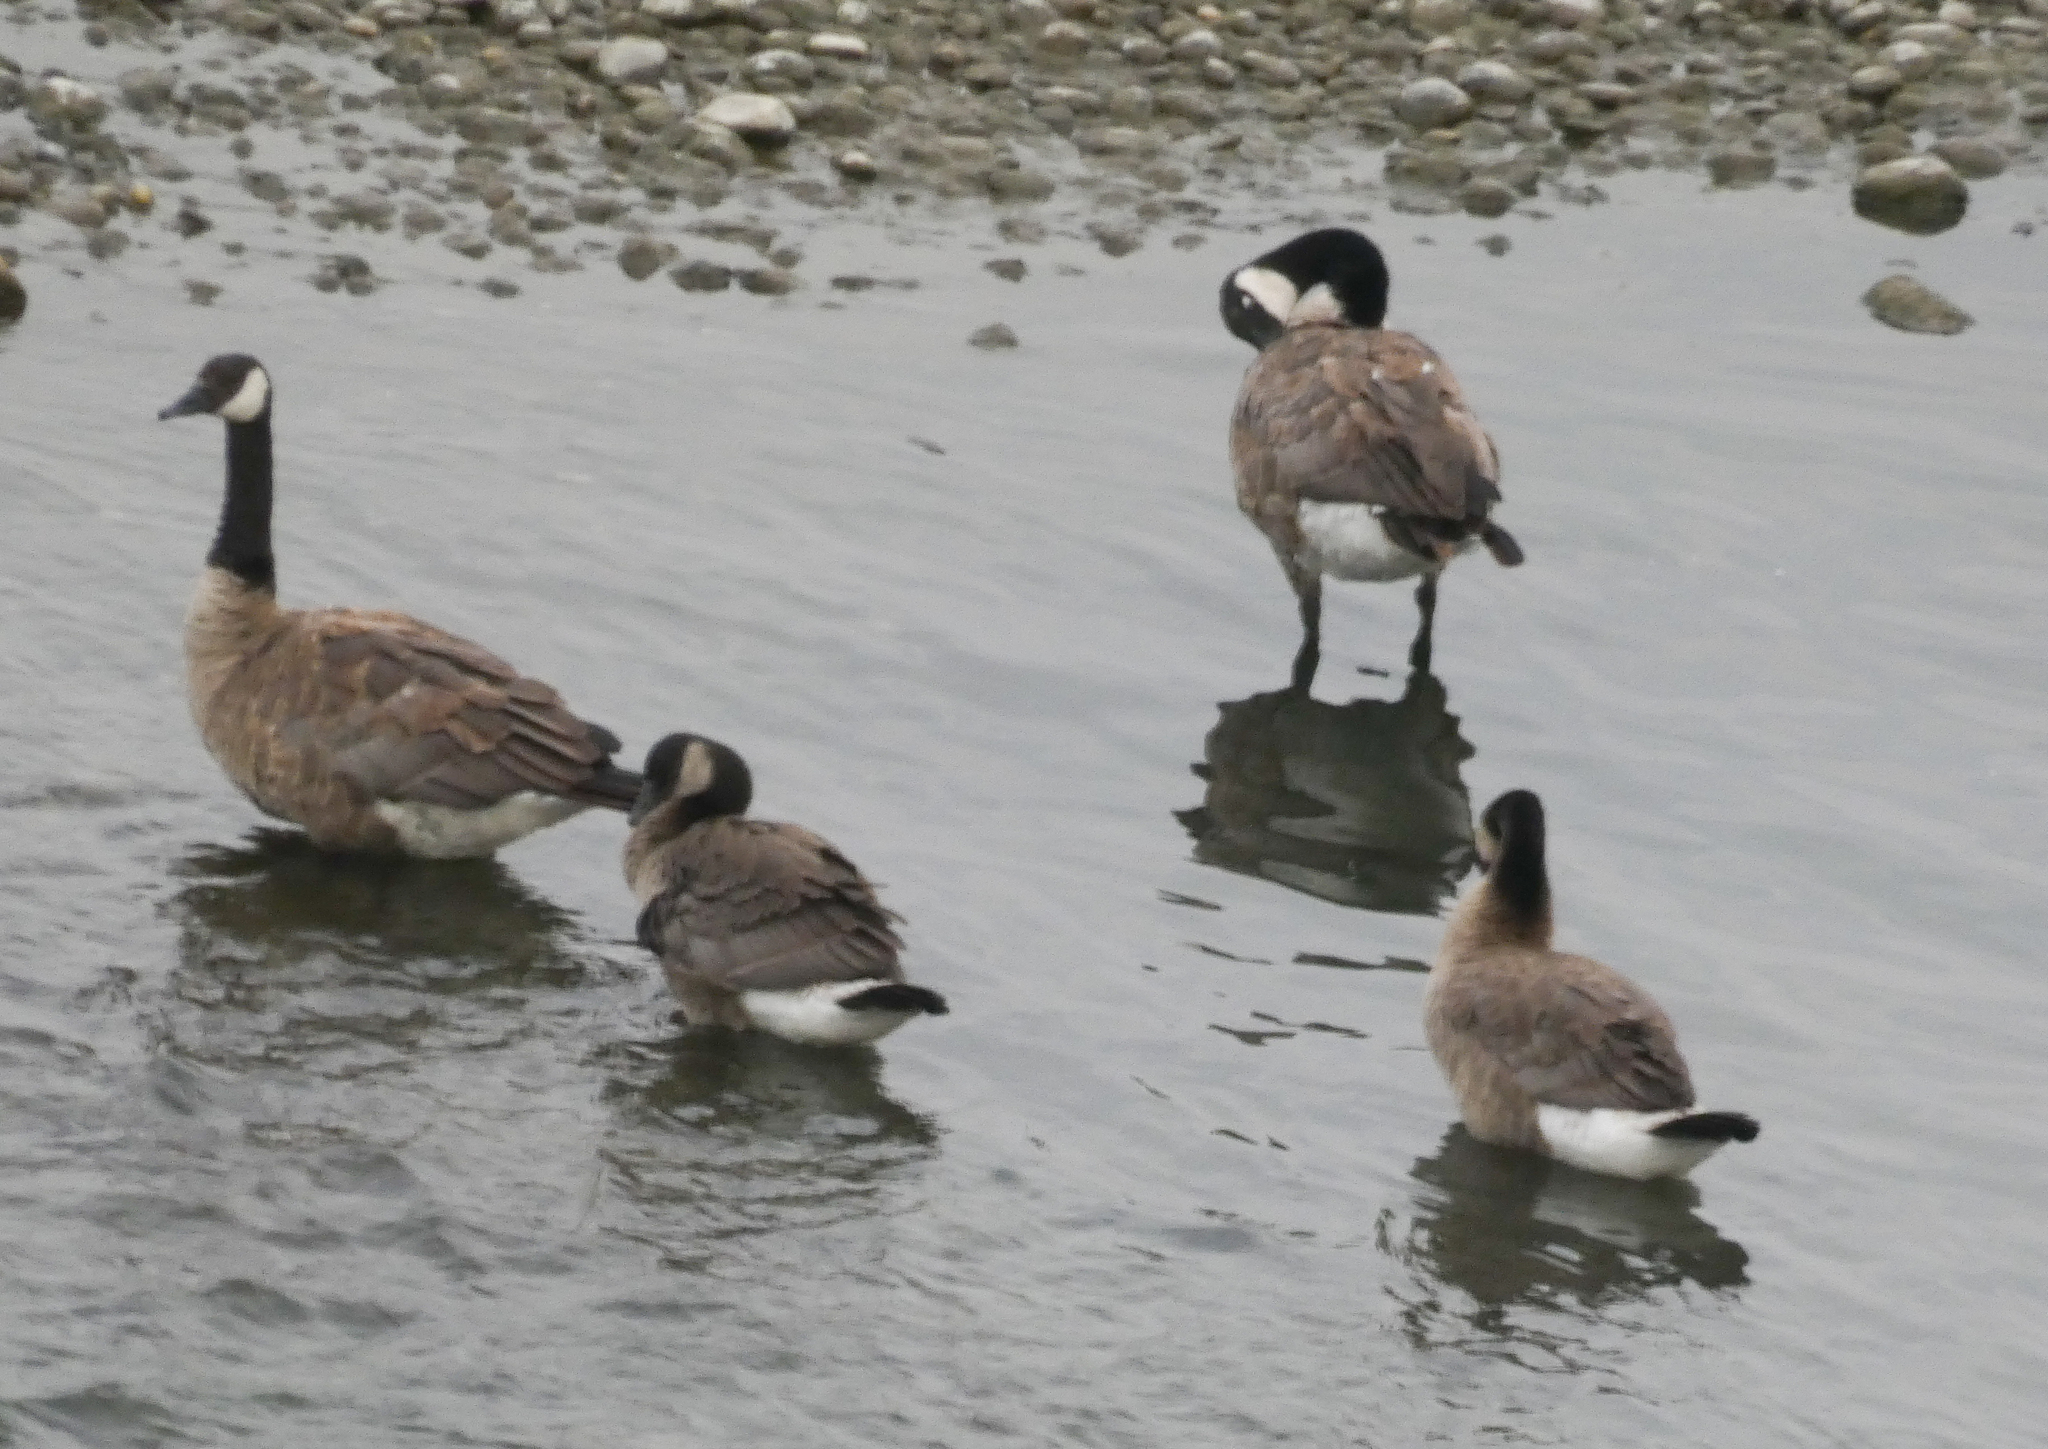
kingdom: Animalia
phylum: Chordata
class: Aves
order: Anseriformes
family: Anatidae
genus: Branta
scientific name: Branta canadensis
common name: Canada goose
